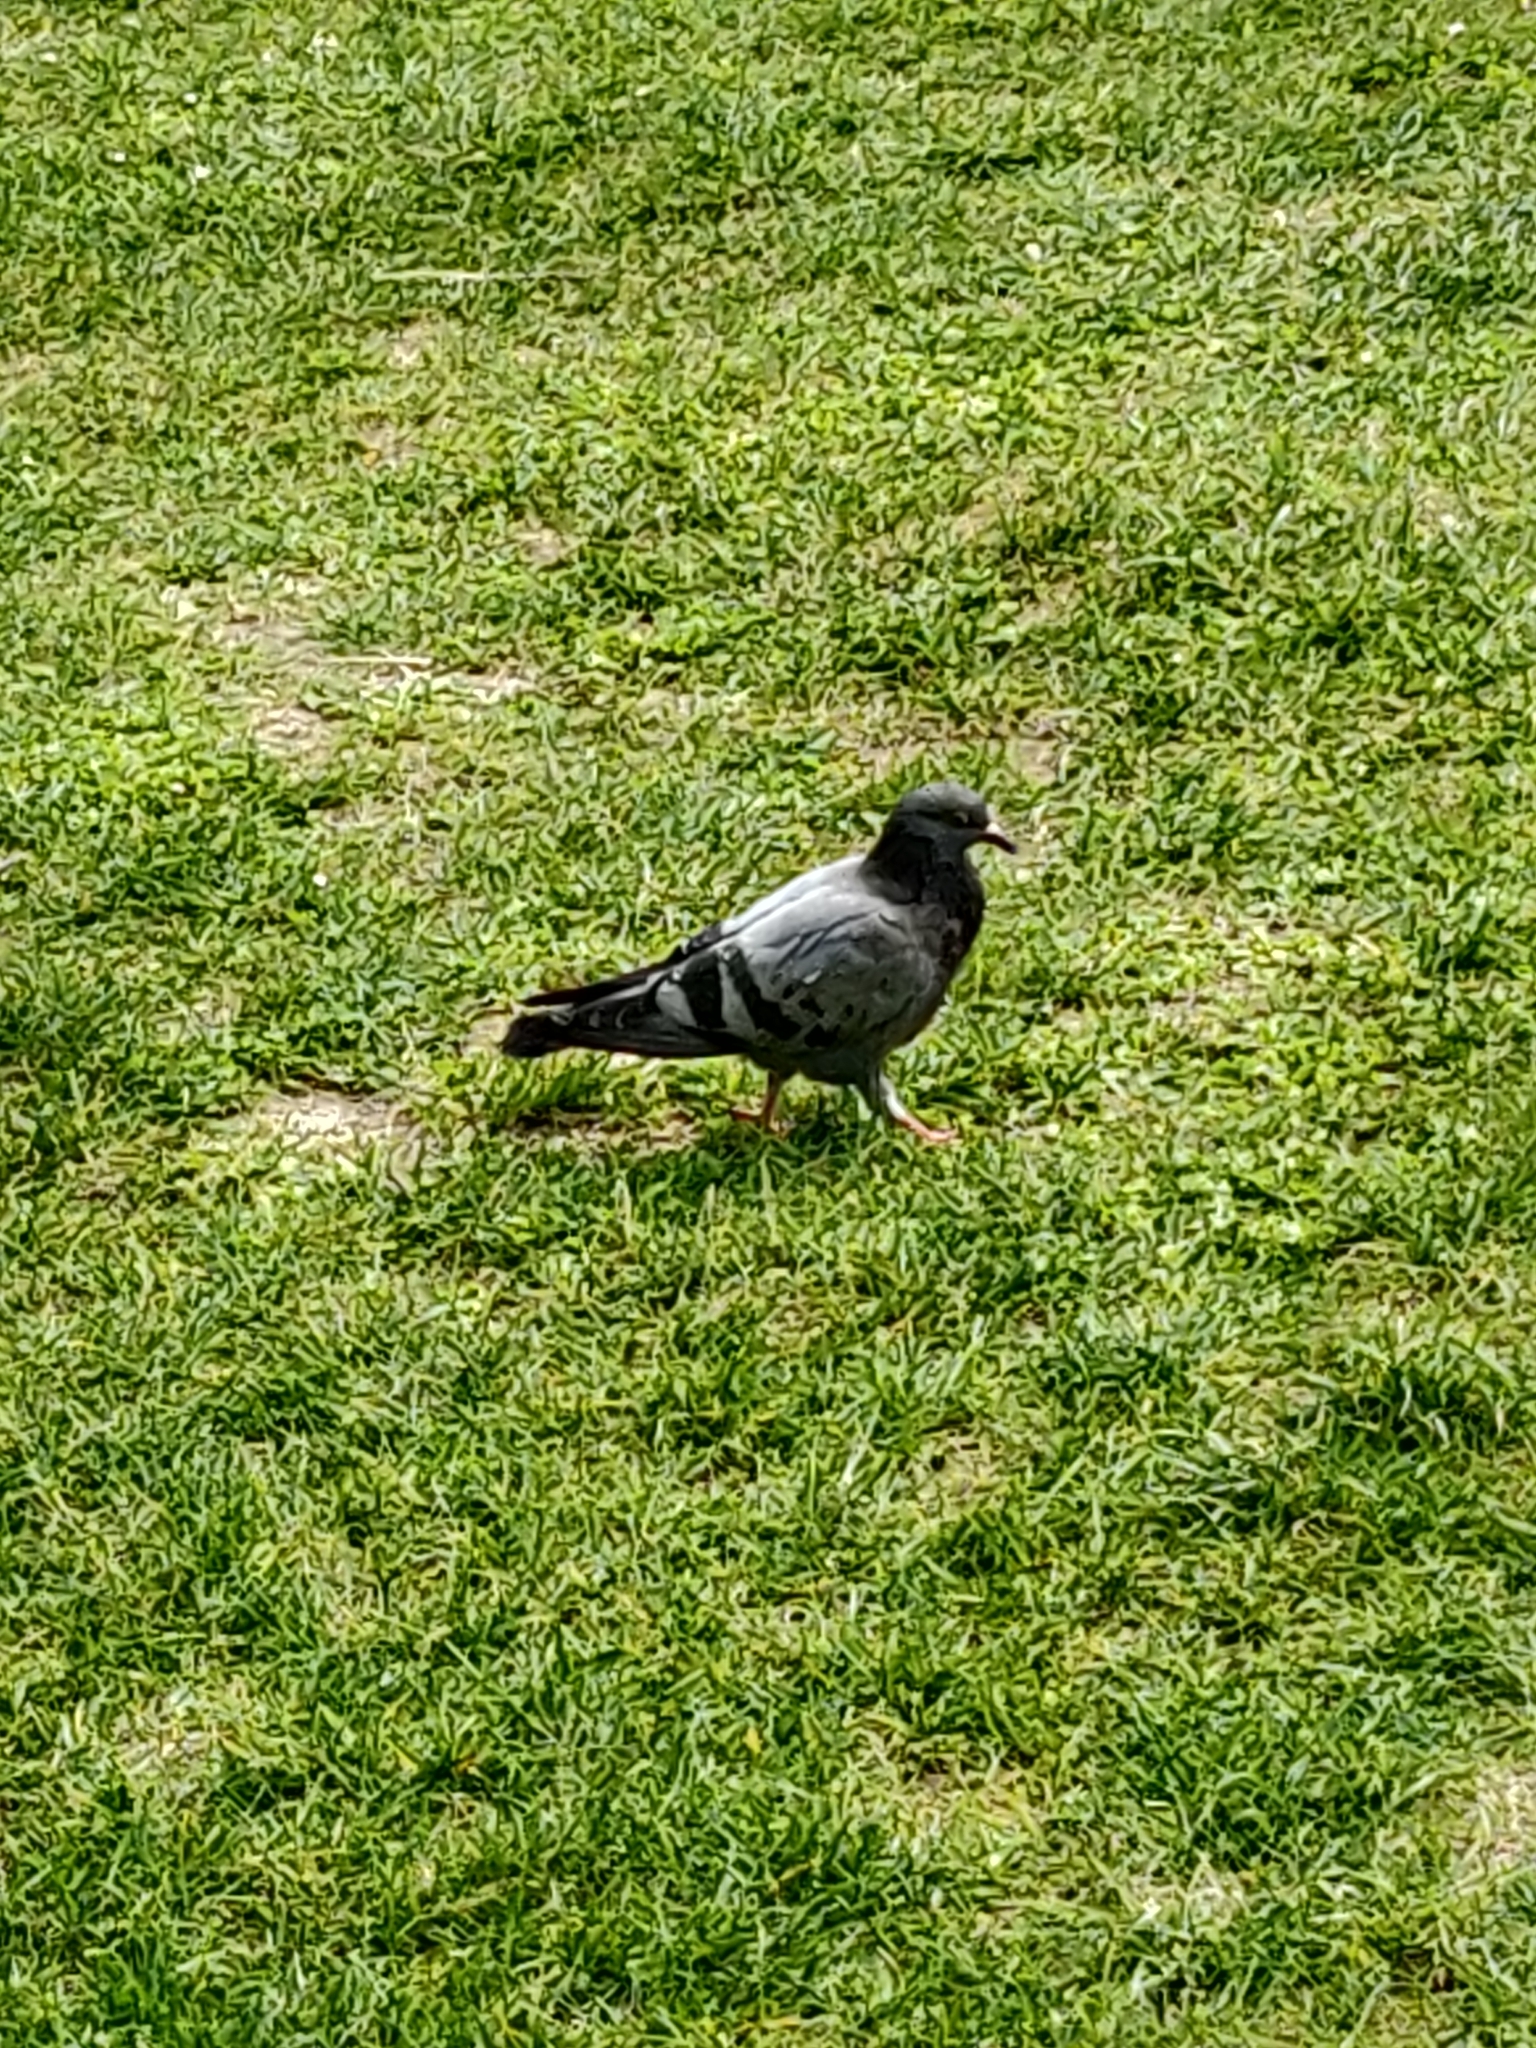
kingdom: Animalia
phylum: Chordata
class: Aves
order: Columbiformes
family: Columbidae
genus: Columba
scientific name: Columba livia
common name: Rock pigeon
